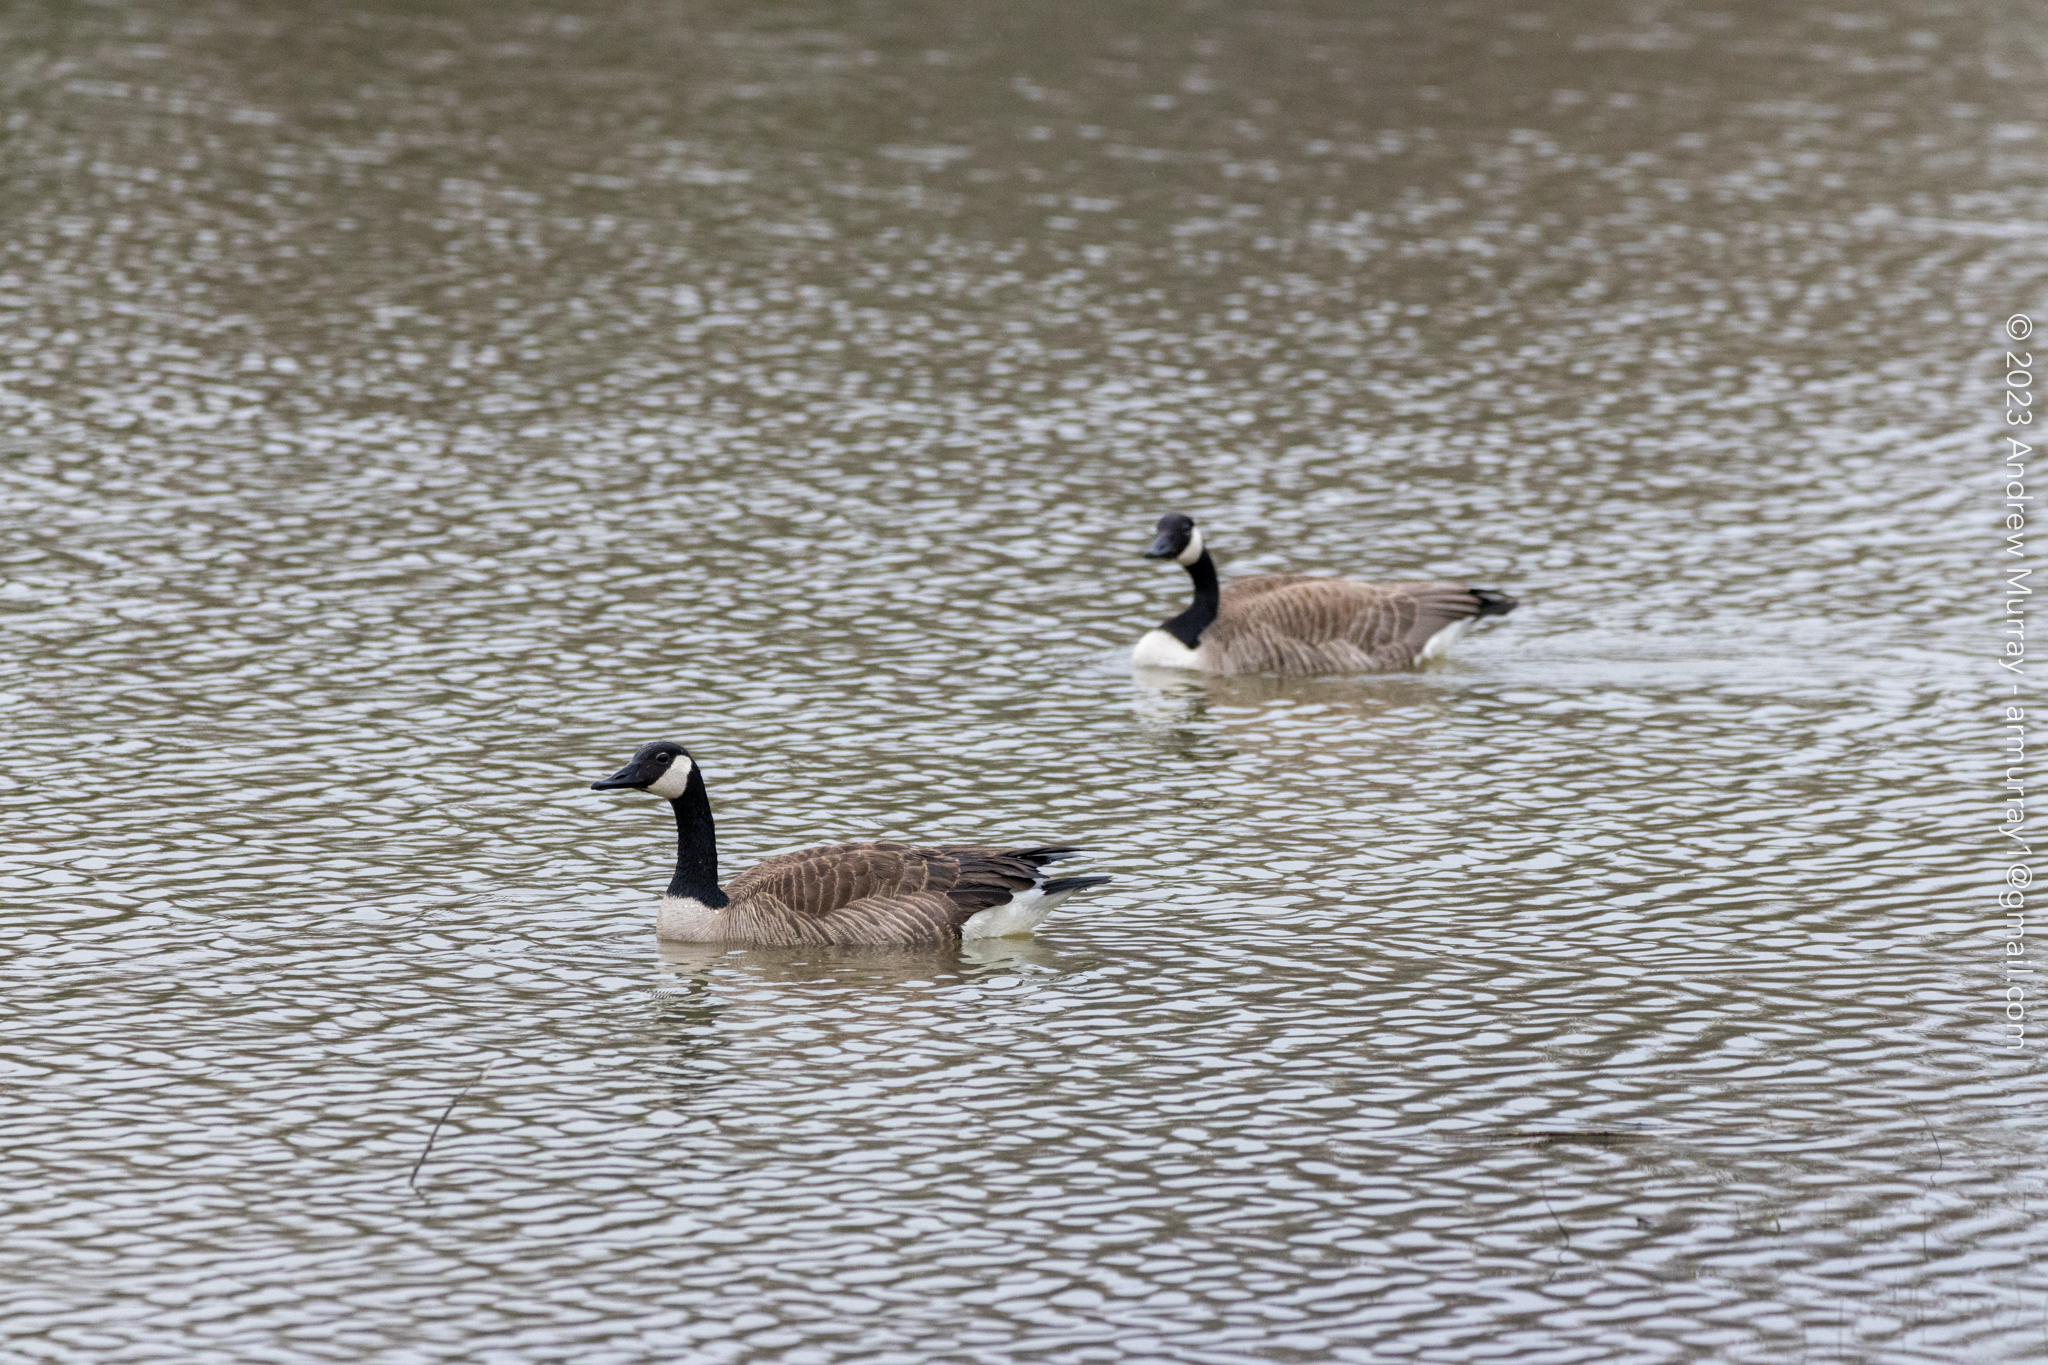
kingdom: Animalia
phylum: Chordata
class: Aves
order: Anseriformes
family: Anatidae
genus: Branta
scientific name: Branta canadensis
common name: Canada goose
